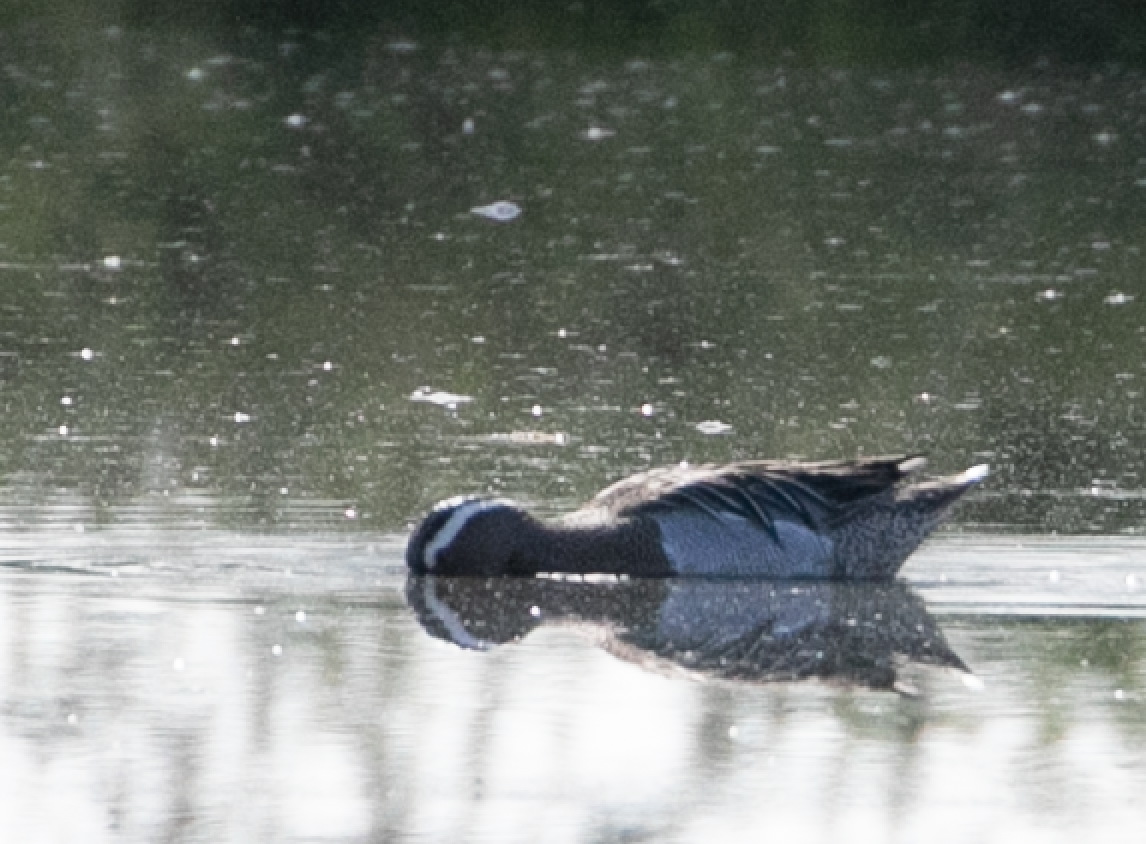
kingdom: Animalia
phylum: Chordata
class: Aves
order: Anseriformes
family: Anatidae
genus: Spatula
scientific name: Spatula querquedula
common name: Garganey
